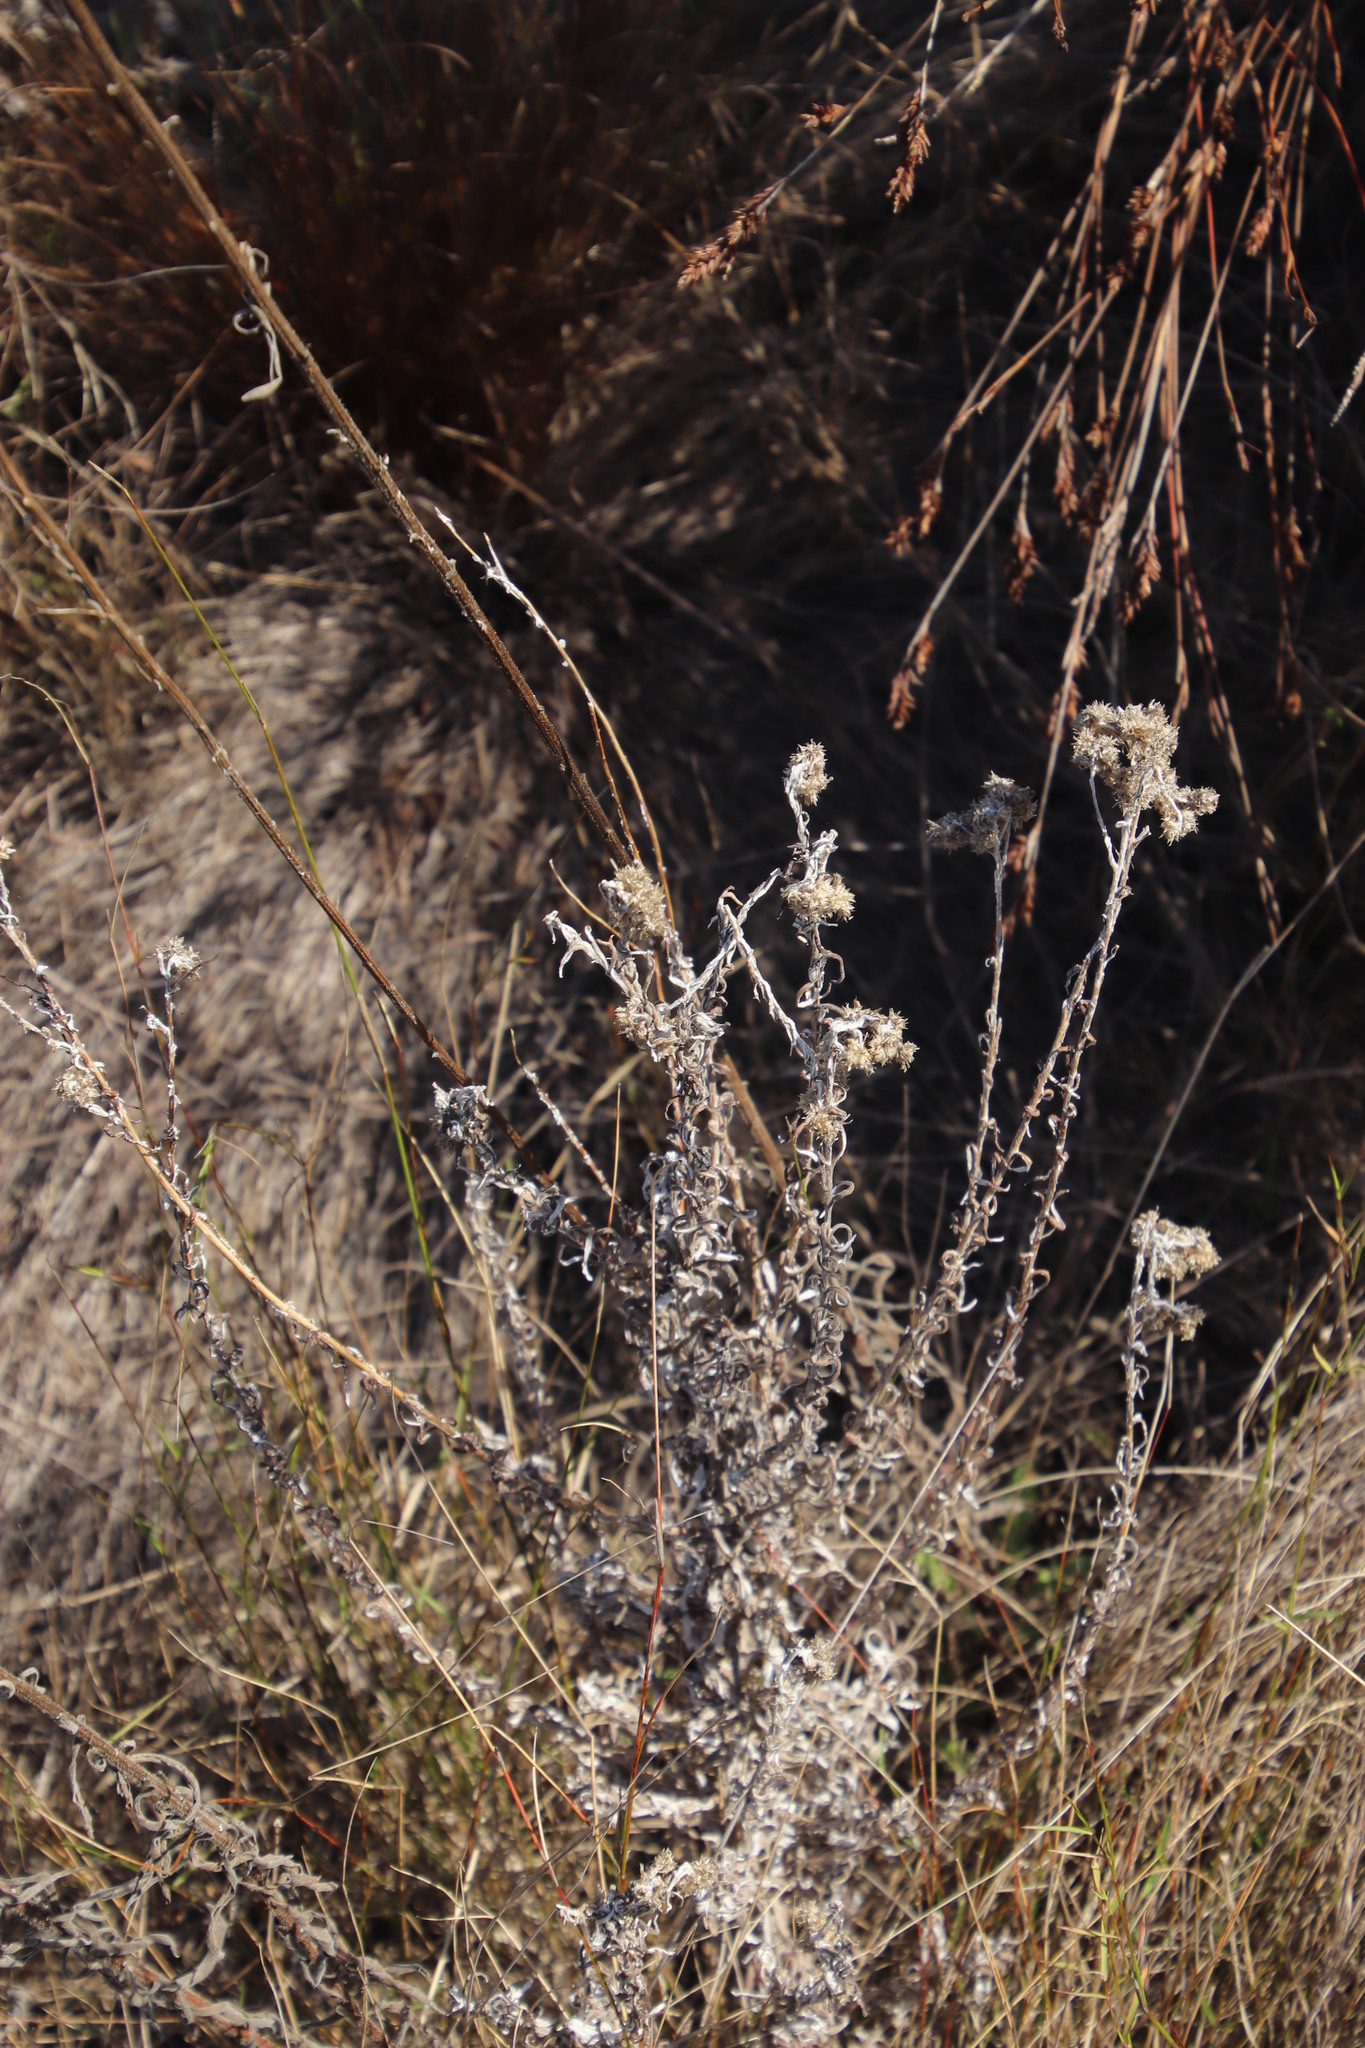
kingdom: Plantae
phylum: Tracheophyta
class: Magnoliopsida
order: Asterales
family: Asteraceae
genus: Pseudognaphalium
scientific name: Pseudognaphalium undulatum
